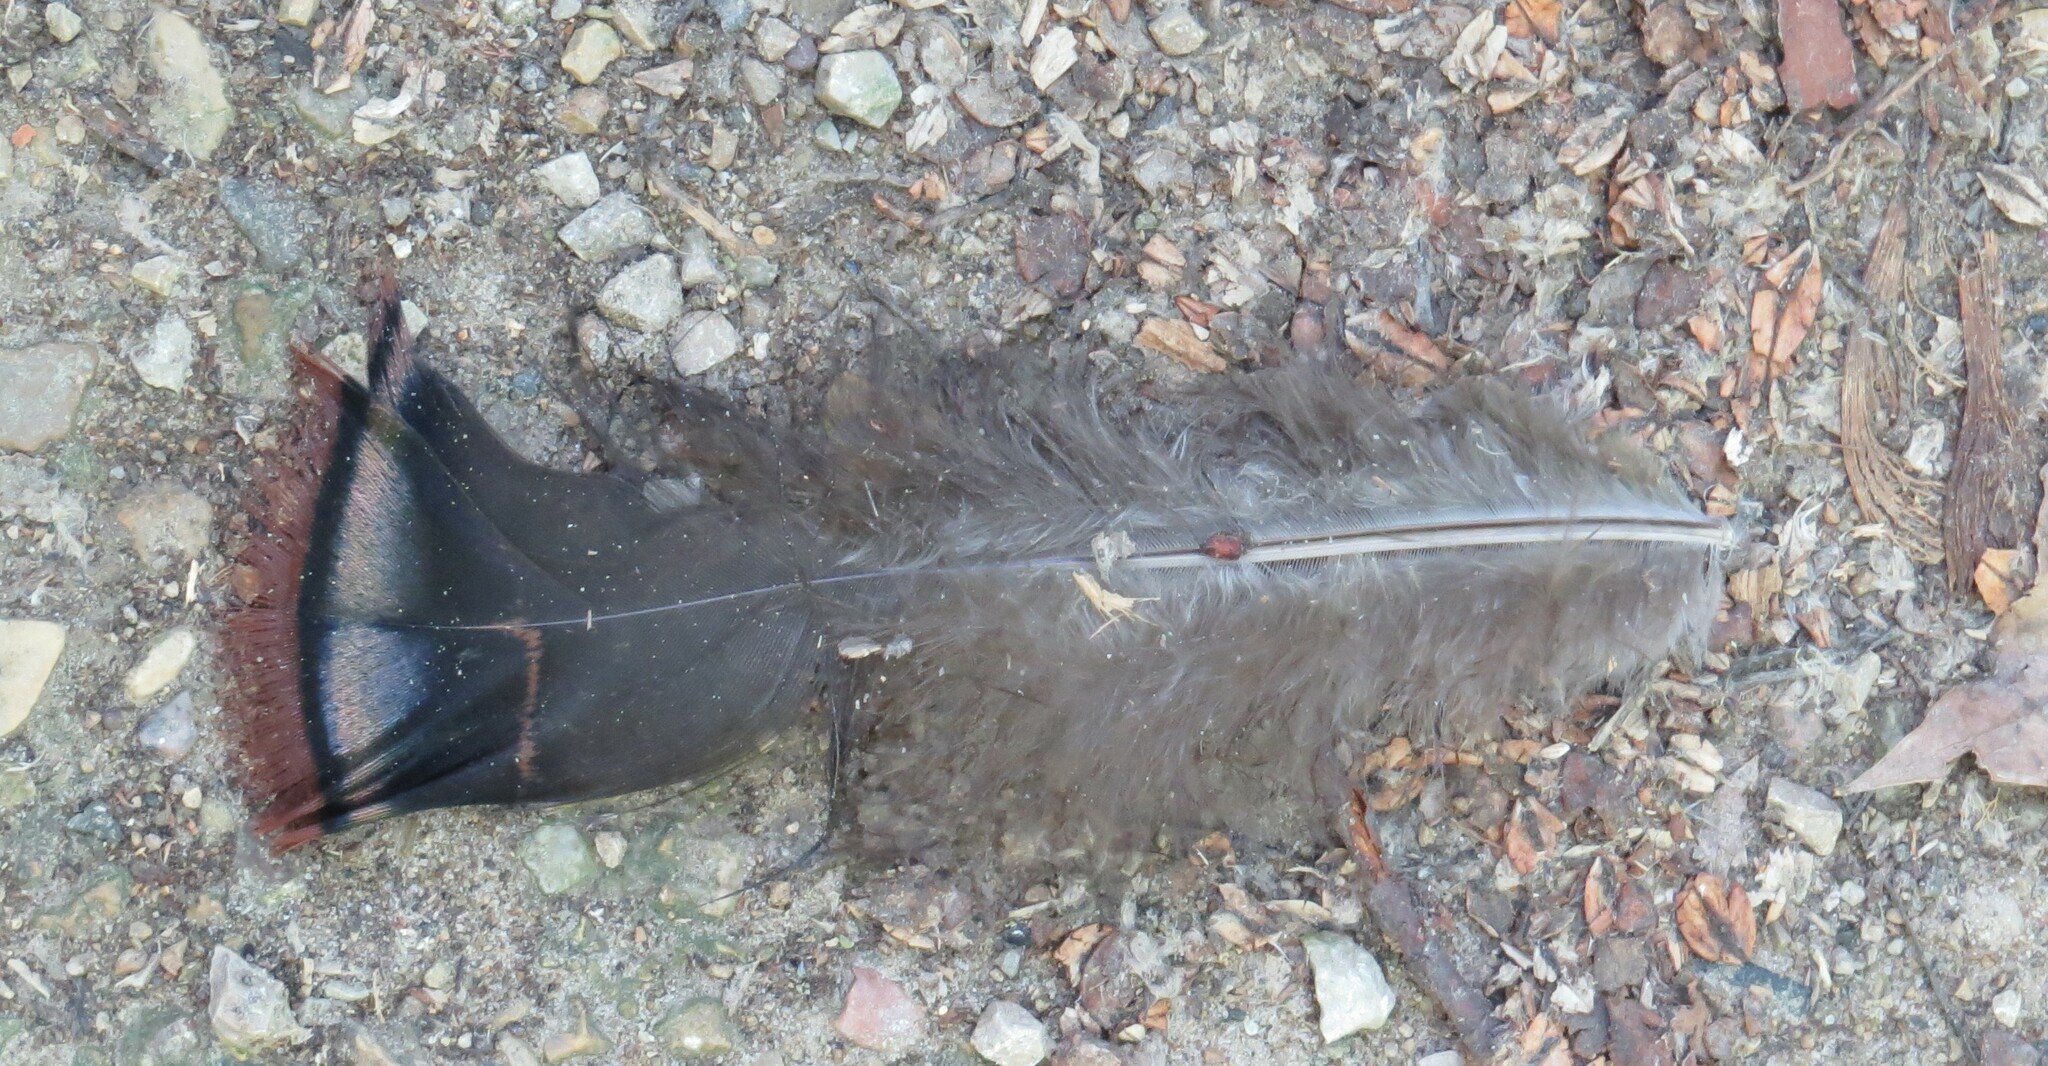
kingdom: Animalia
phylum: Chordata
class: Aves
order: Galliformes
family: Phasianidae
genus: Meleagris
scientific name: Meleagris gallopavo
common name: Wild turkey
